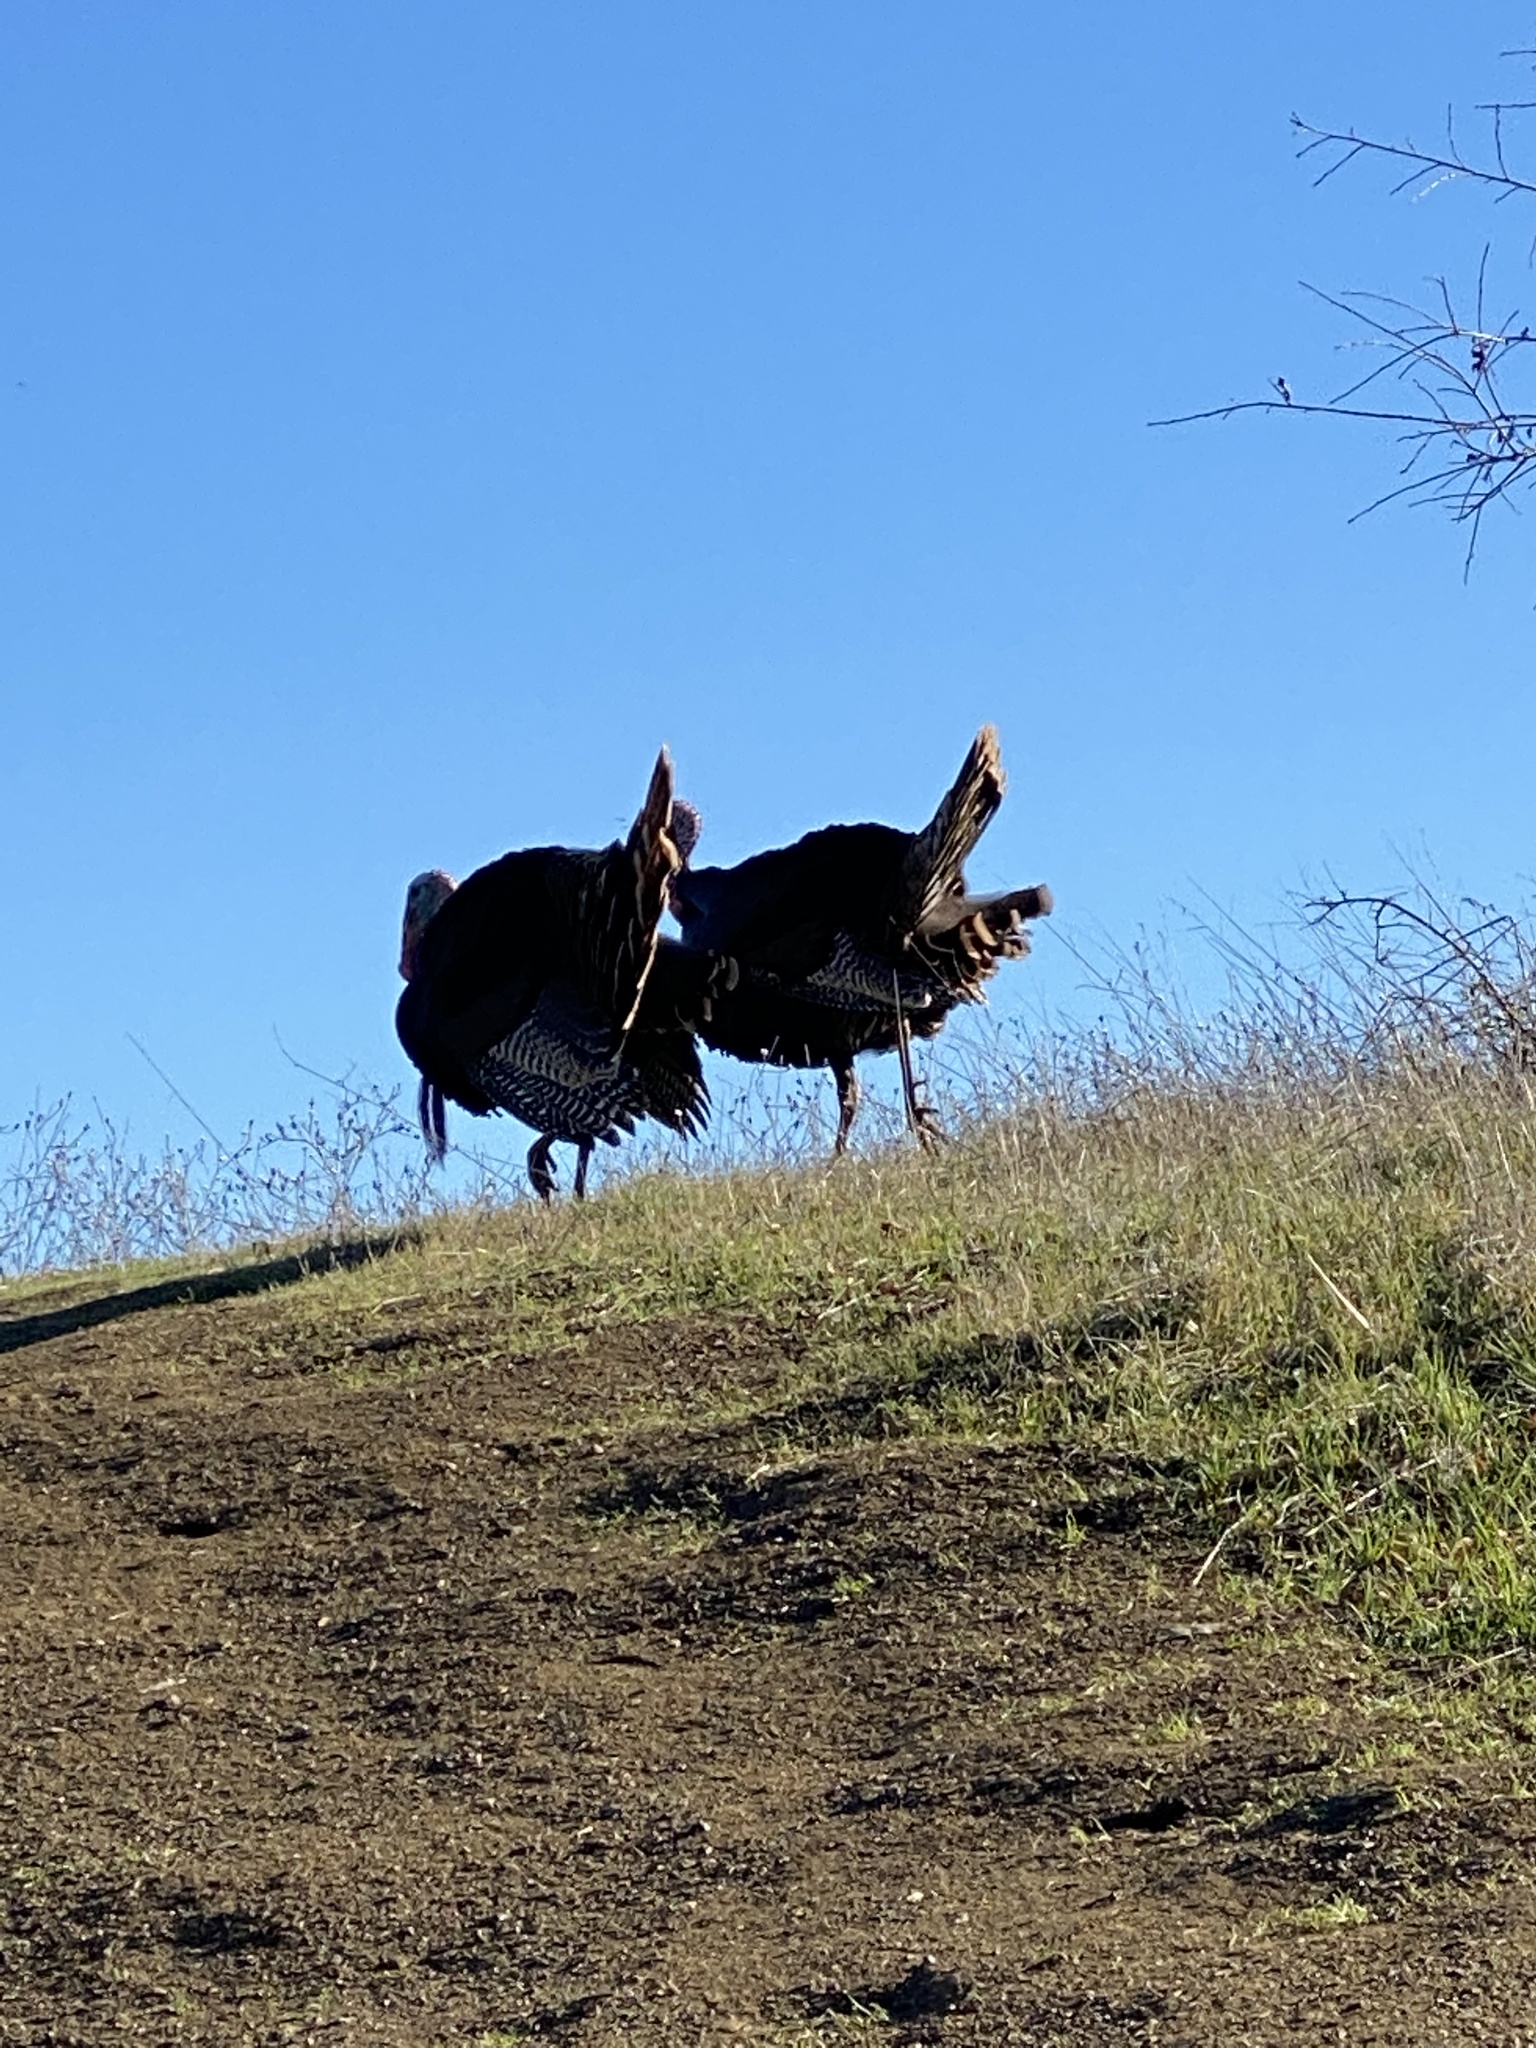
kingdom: Animalia
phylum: Chordata
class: Aves
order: Galliformes
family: Phasianidae
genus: Meleagris
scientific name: Meleagris gallopavo
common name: Wild turkey
